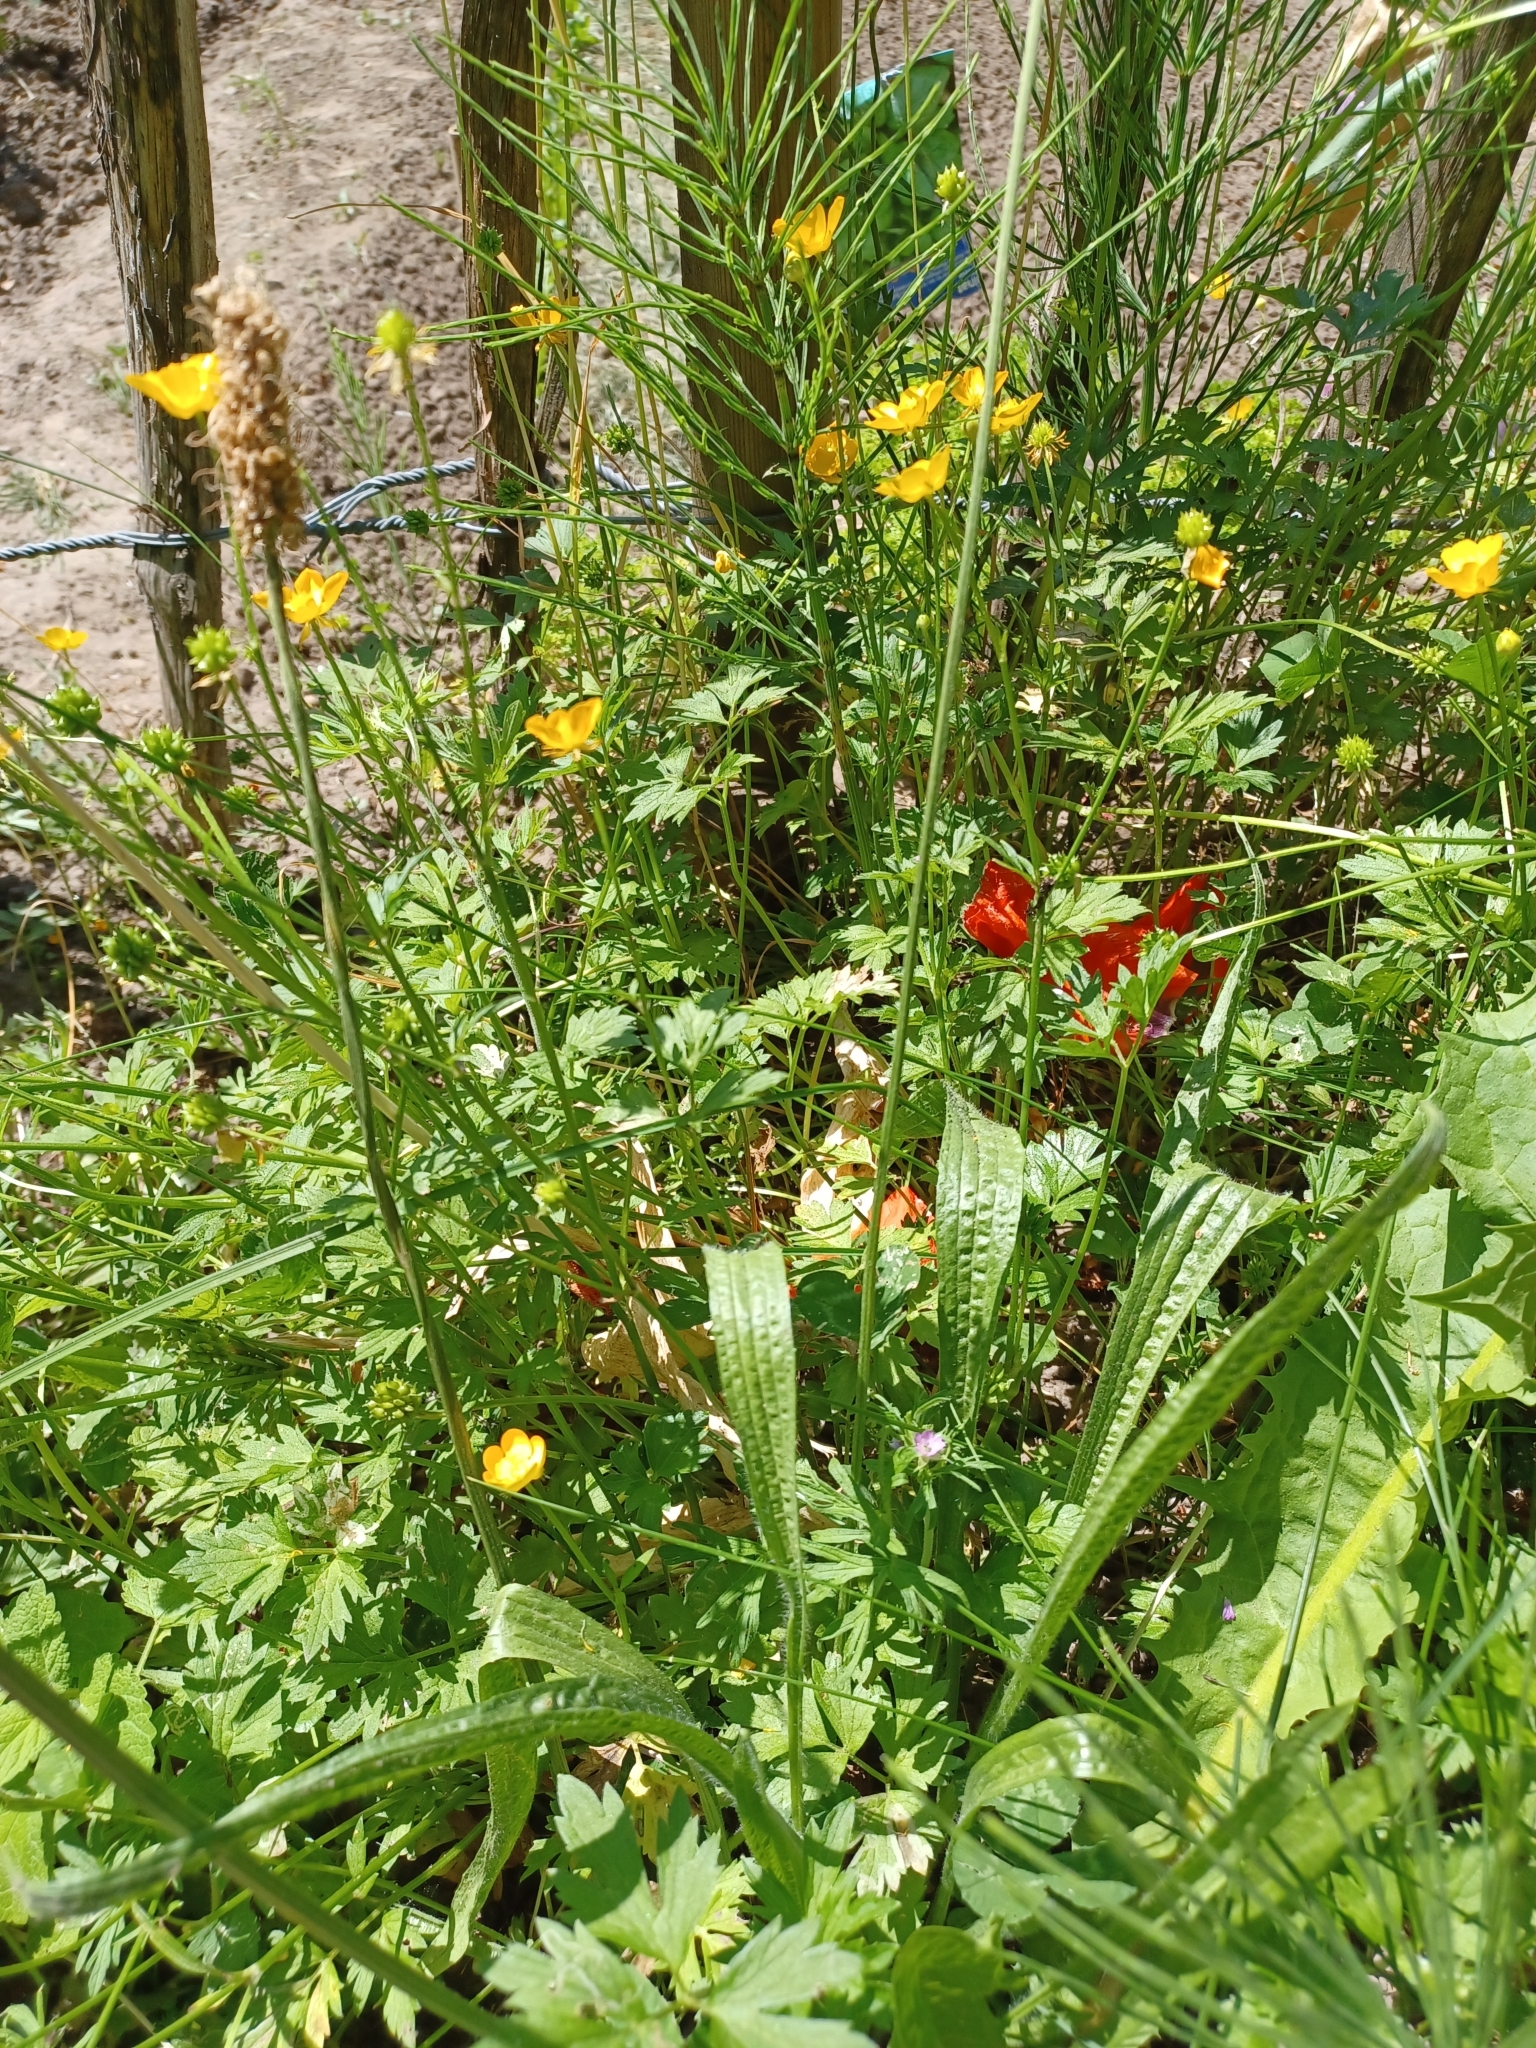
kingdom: Plantae
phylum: Tracheophyta
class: Magnoliopsida
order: Lamiales
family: Plantaginaceae
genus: Plantago
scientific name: Plantago lanceolata
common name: Ribwort plantain
